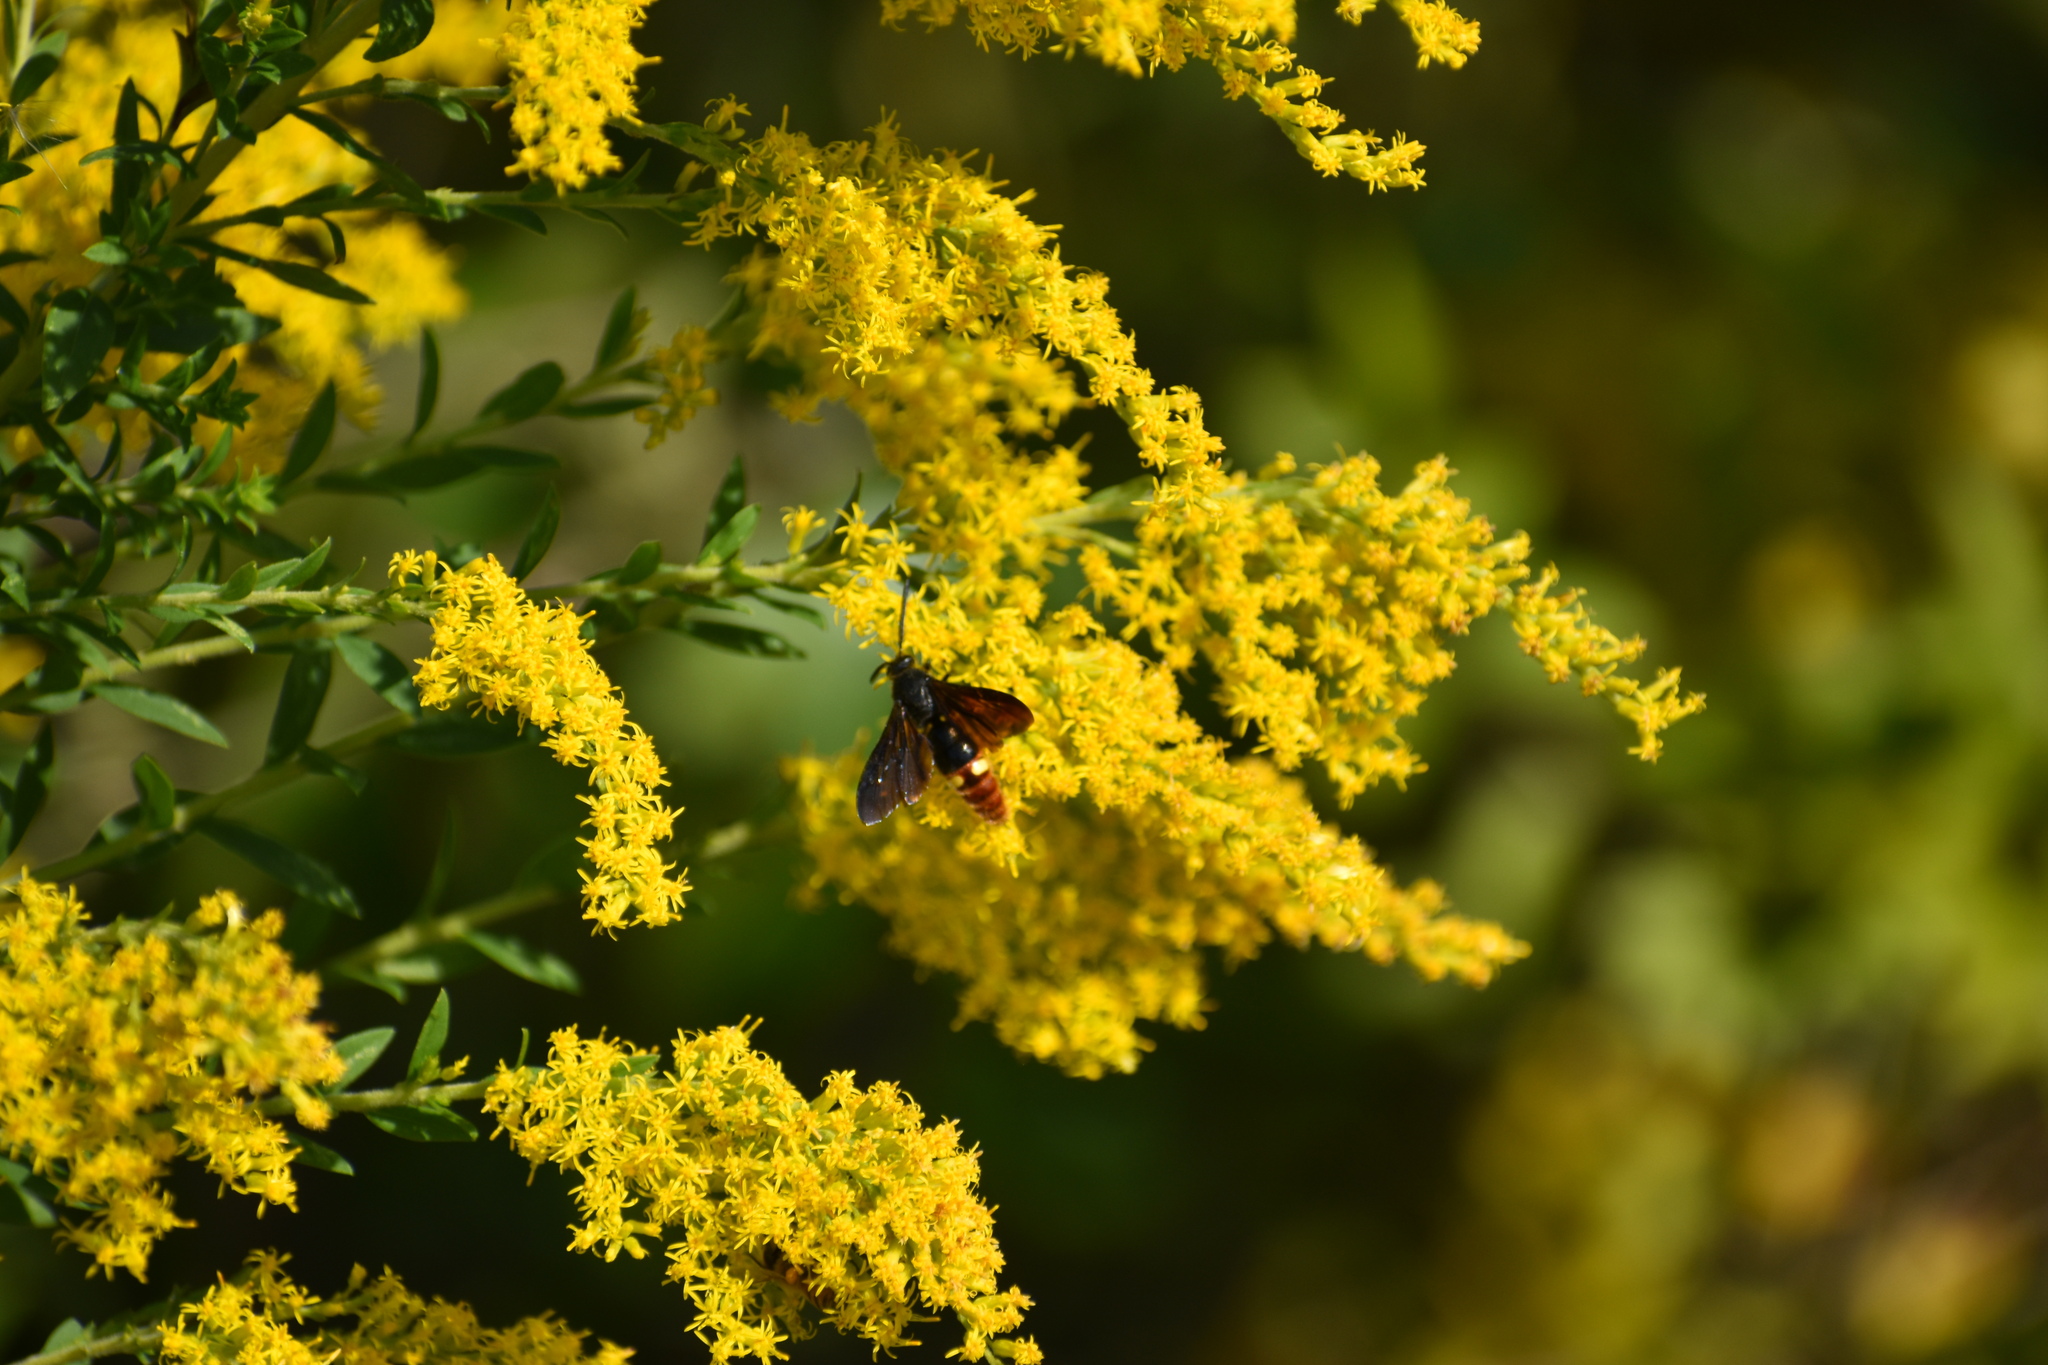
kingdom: Animalia
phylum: Arthropoda
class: Insecta
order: Hymenoptera
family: Scoliidae
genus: Scolia
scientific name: Scolia dubia
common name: Blue-winged scoliid wasp
